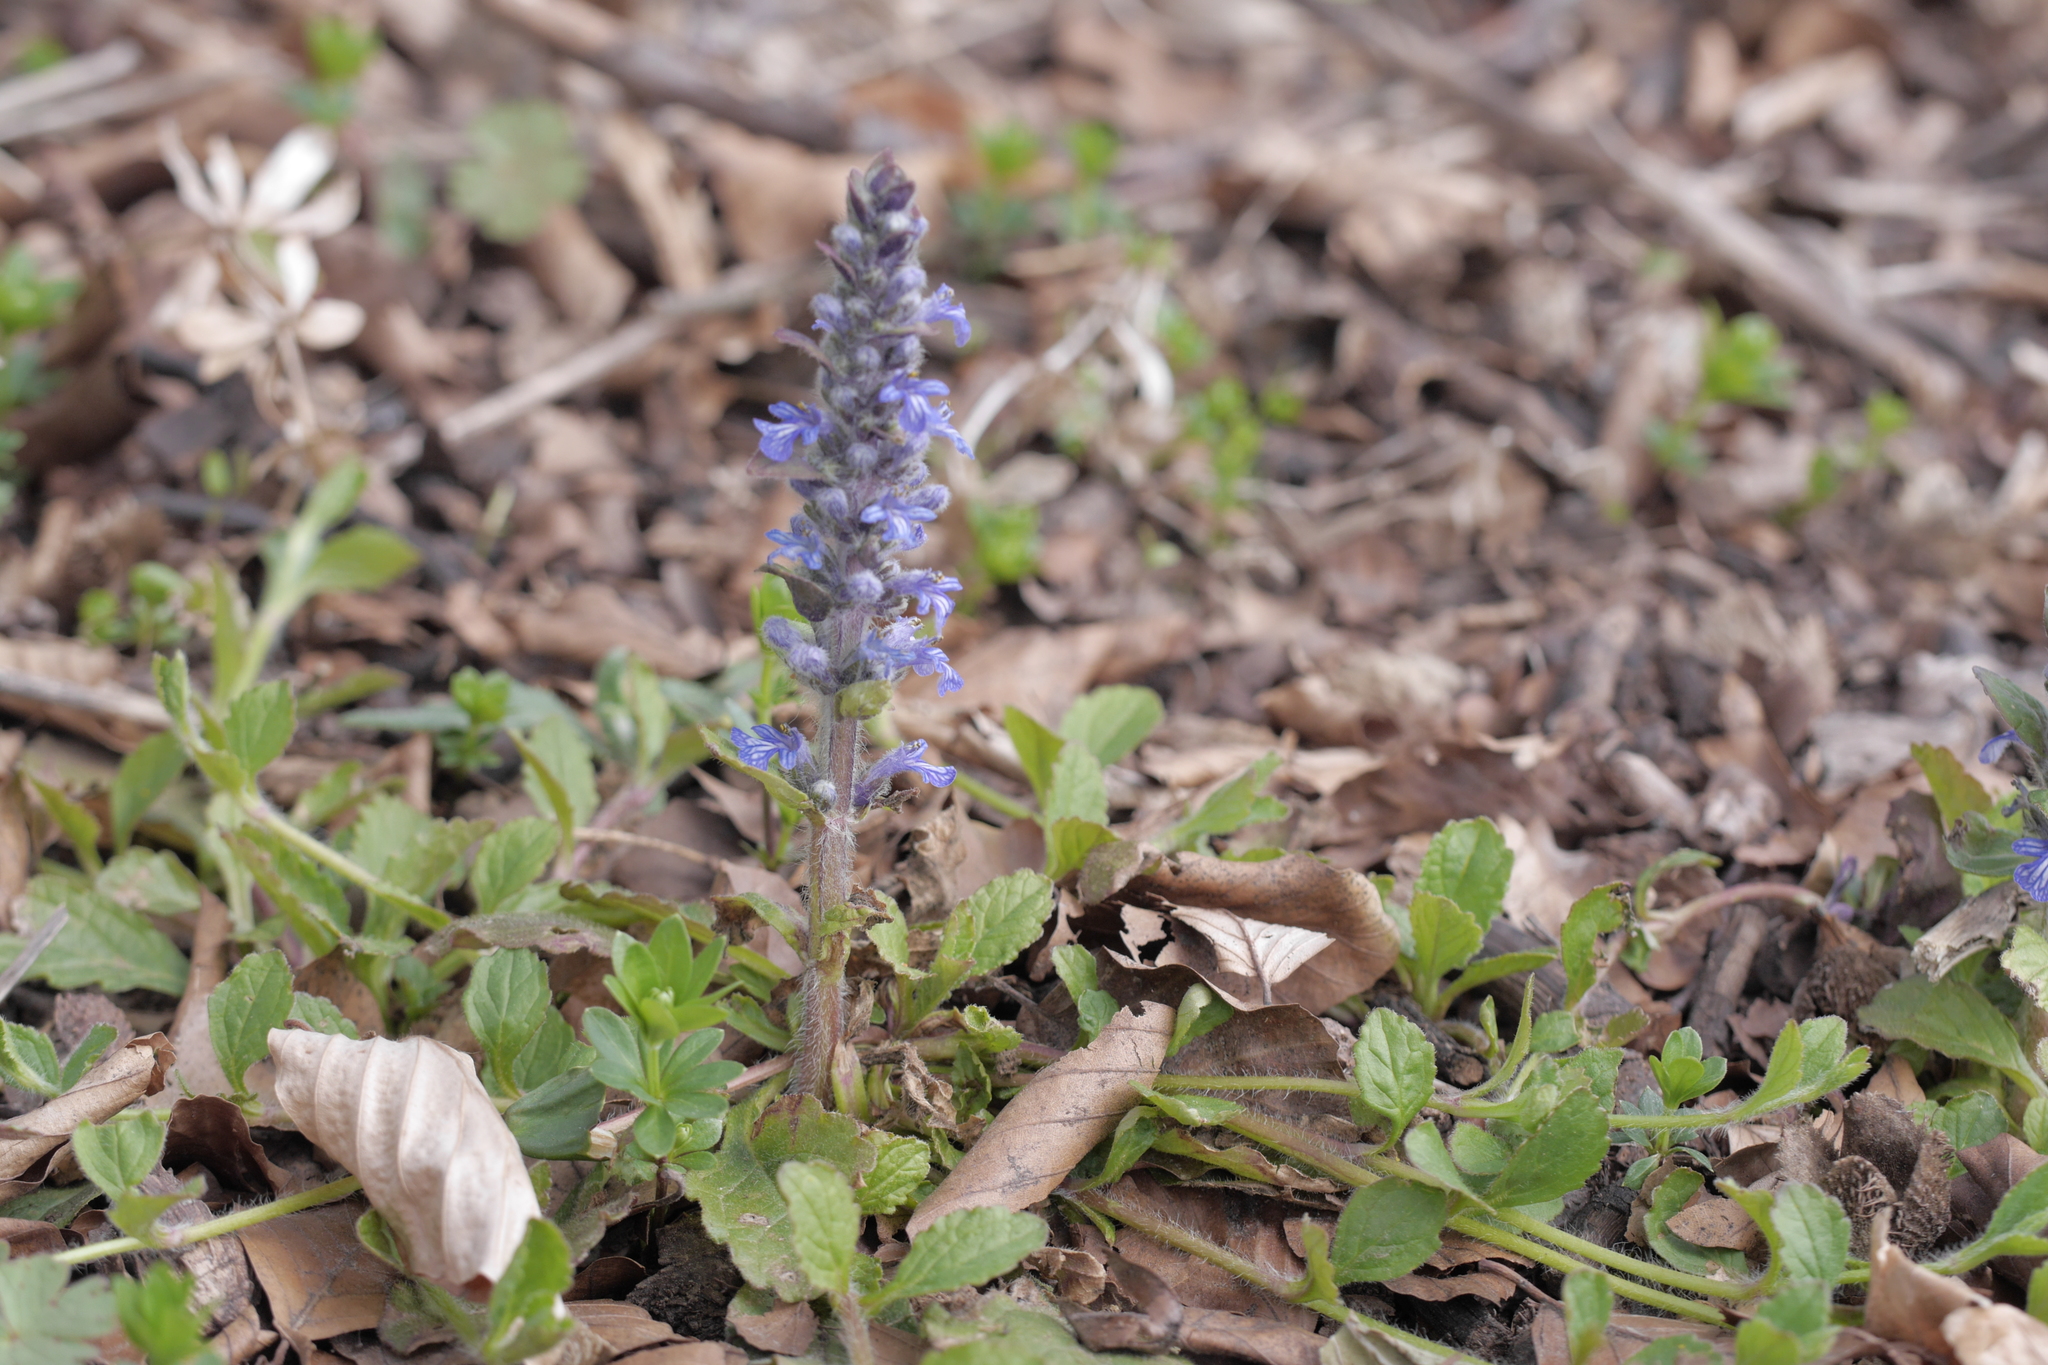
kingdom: Plantae
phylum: Tracheophyta
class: Magnoliopsida
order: Lamiales
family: Lamiaceae
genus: Ajuga
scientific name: Ajuga reptans
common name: Bugle
